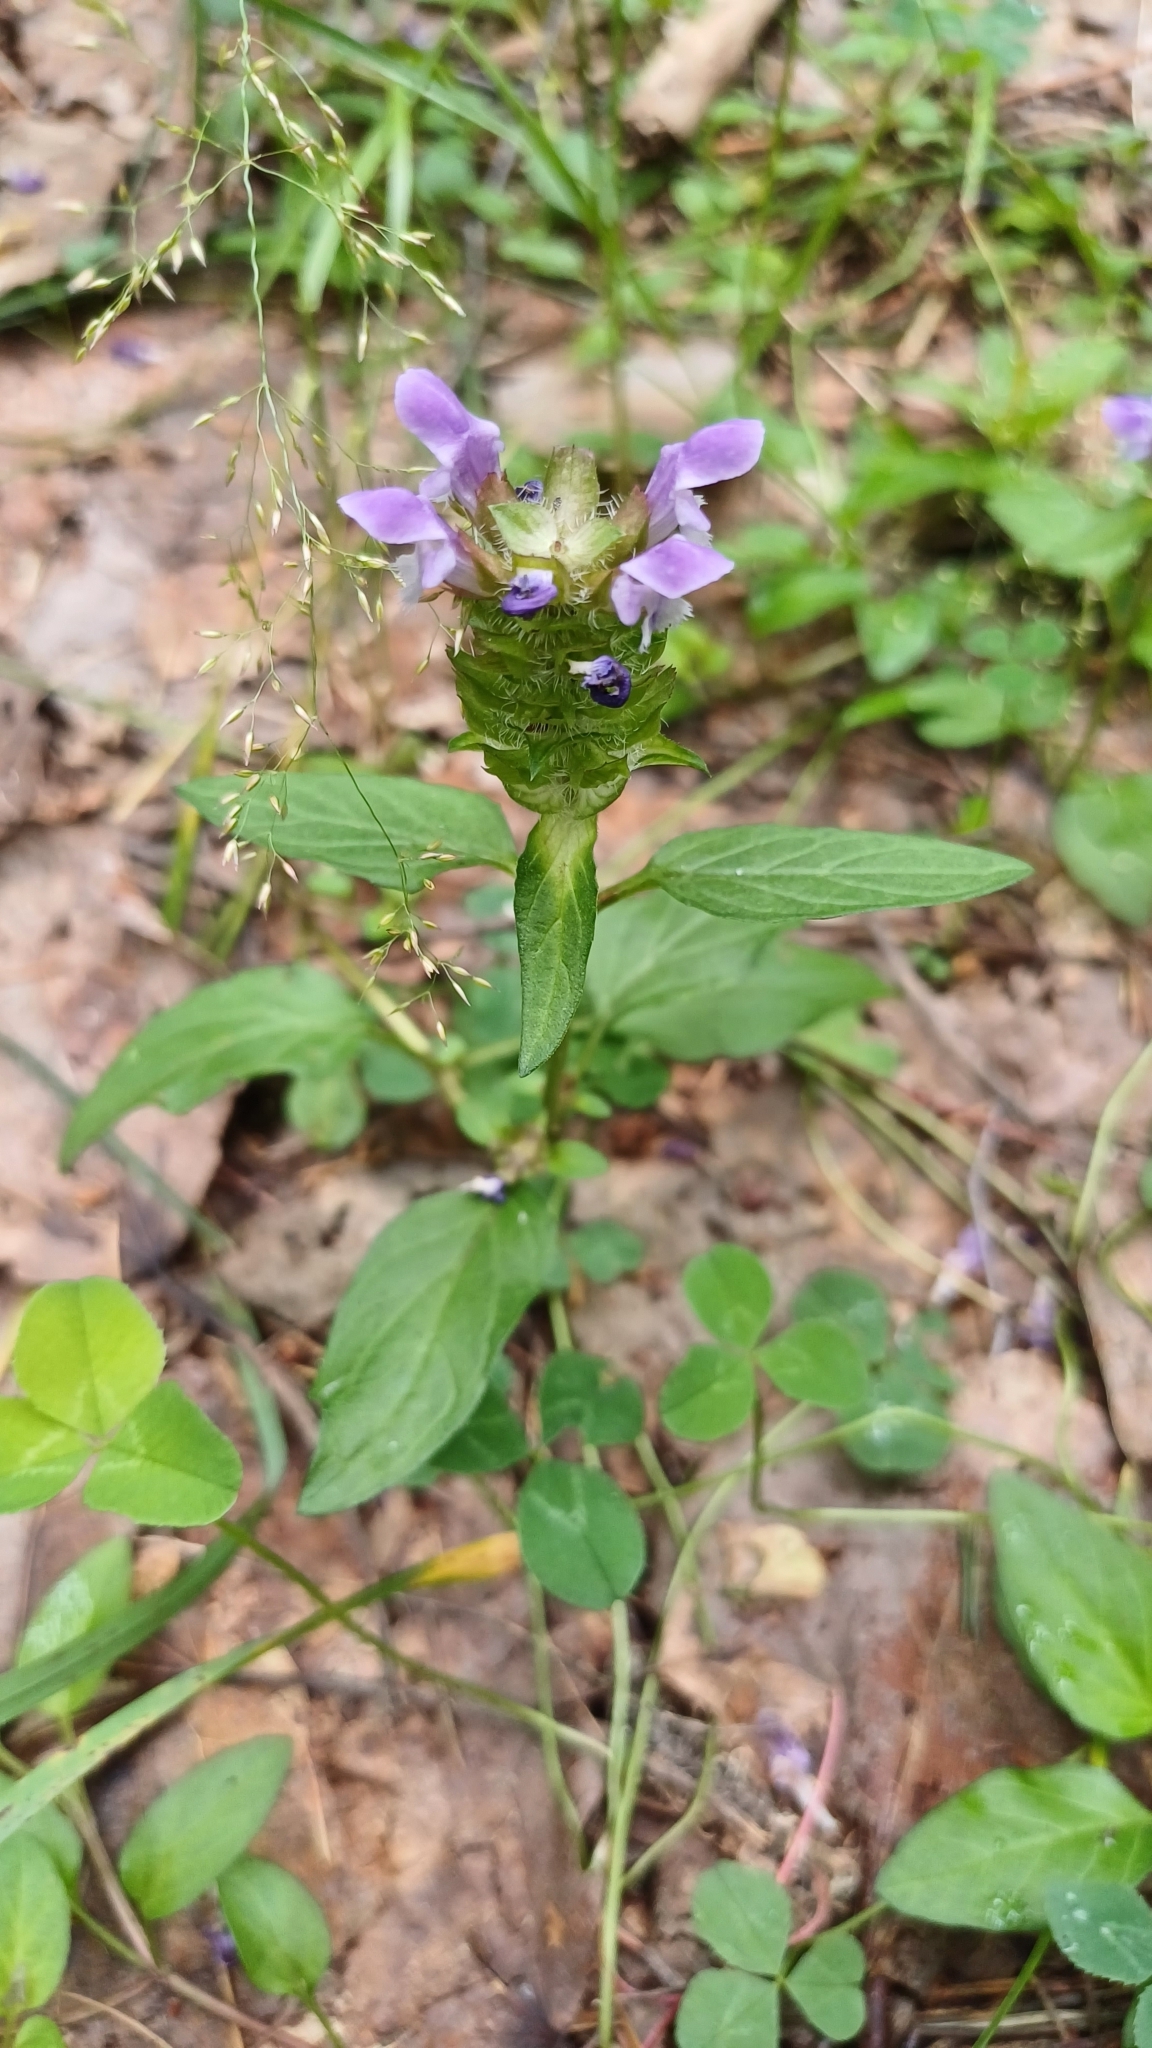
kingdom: Plantae
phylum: Tracheophyta
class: Magnoliopsida
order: Lamiales
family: Lamiaceae
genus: Prunella
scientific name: Prunella vulgaris
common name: Heal-all
